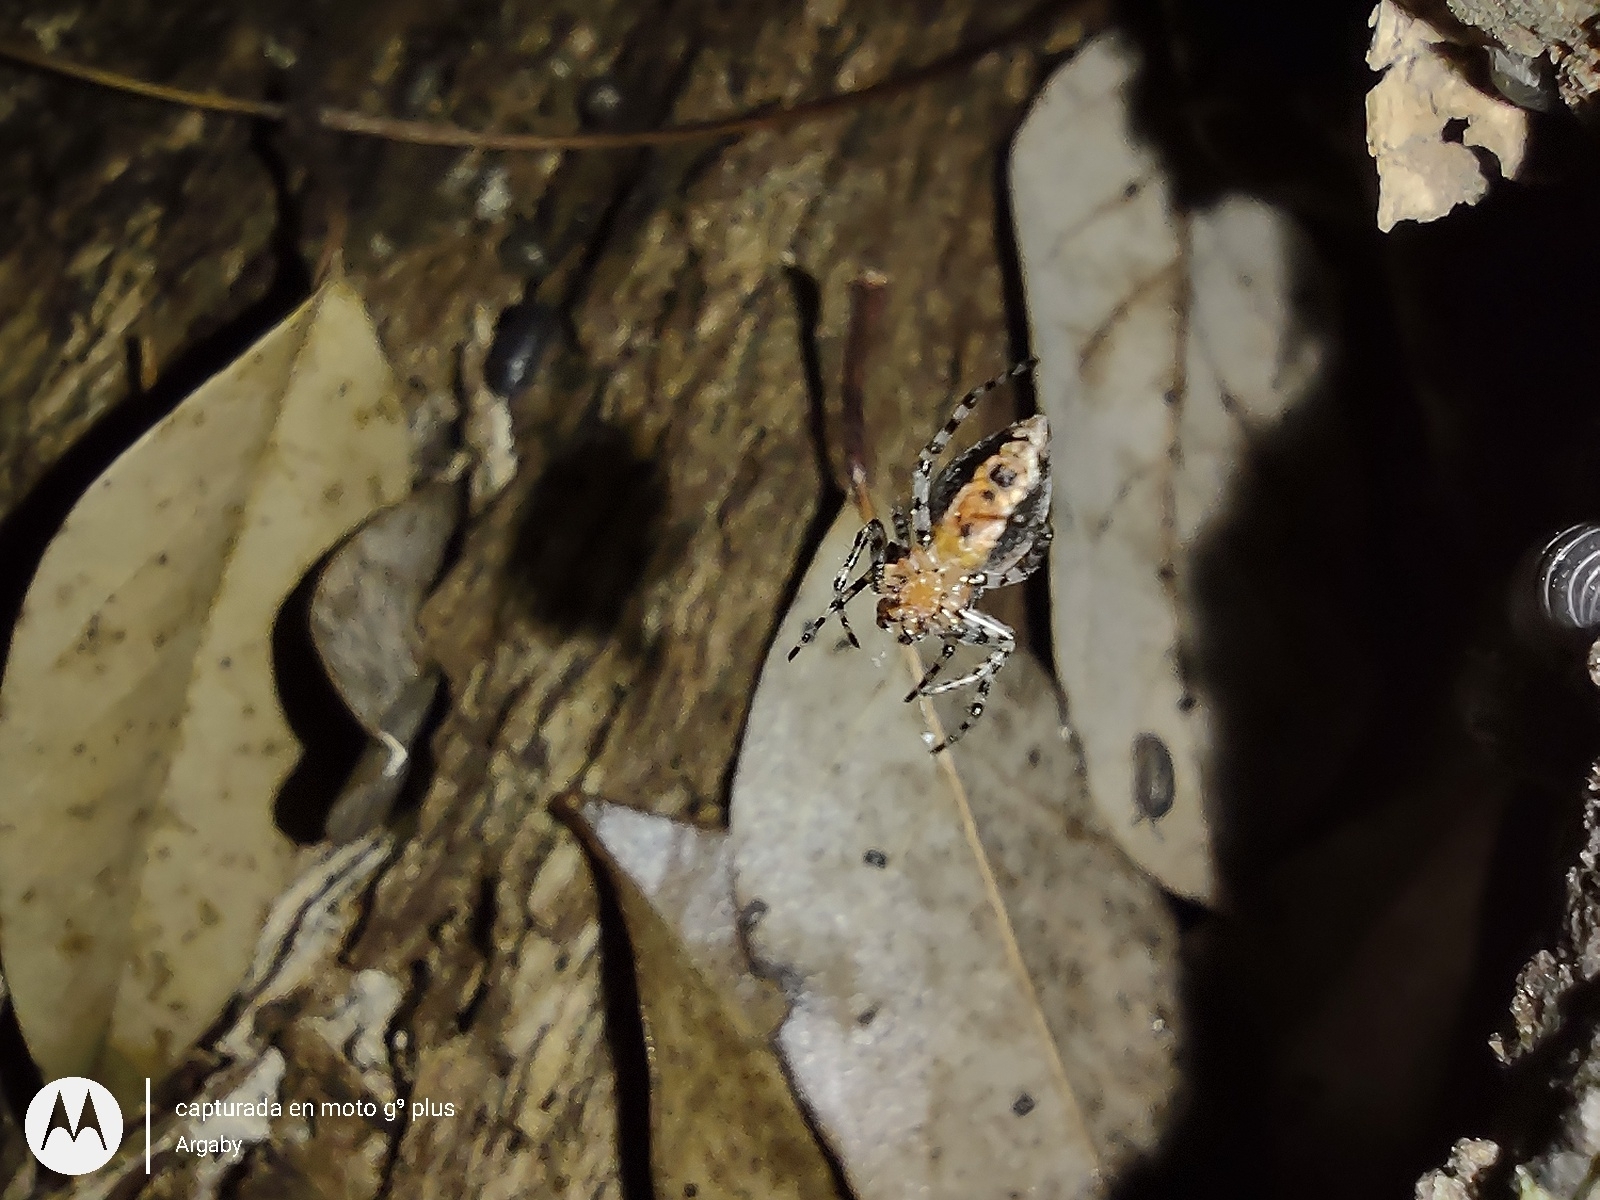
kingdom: Animalia
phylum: Arthropoda
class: Arachnida
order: Araneae
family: Araneidae
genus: Alpaida
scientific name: Alpaida gallardoi
